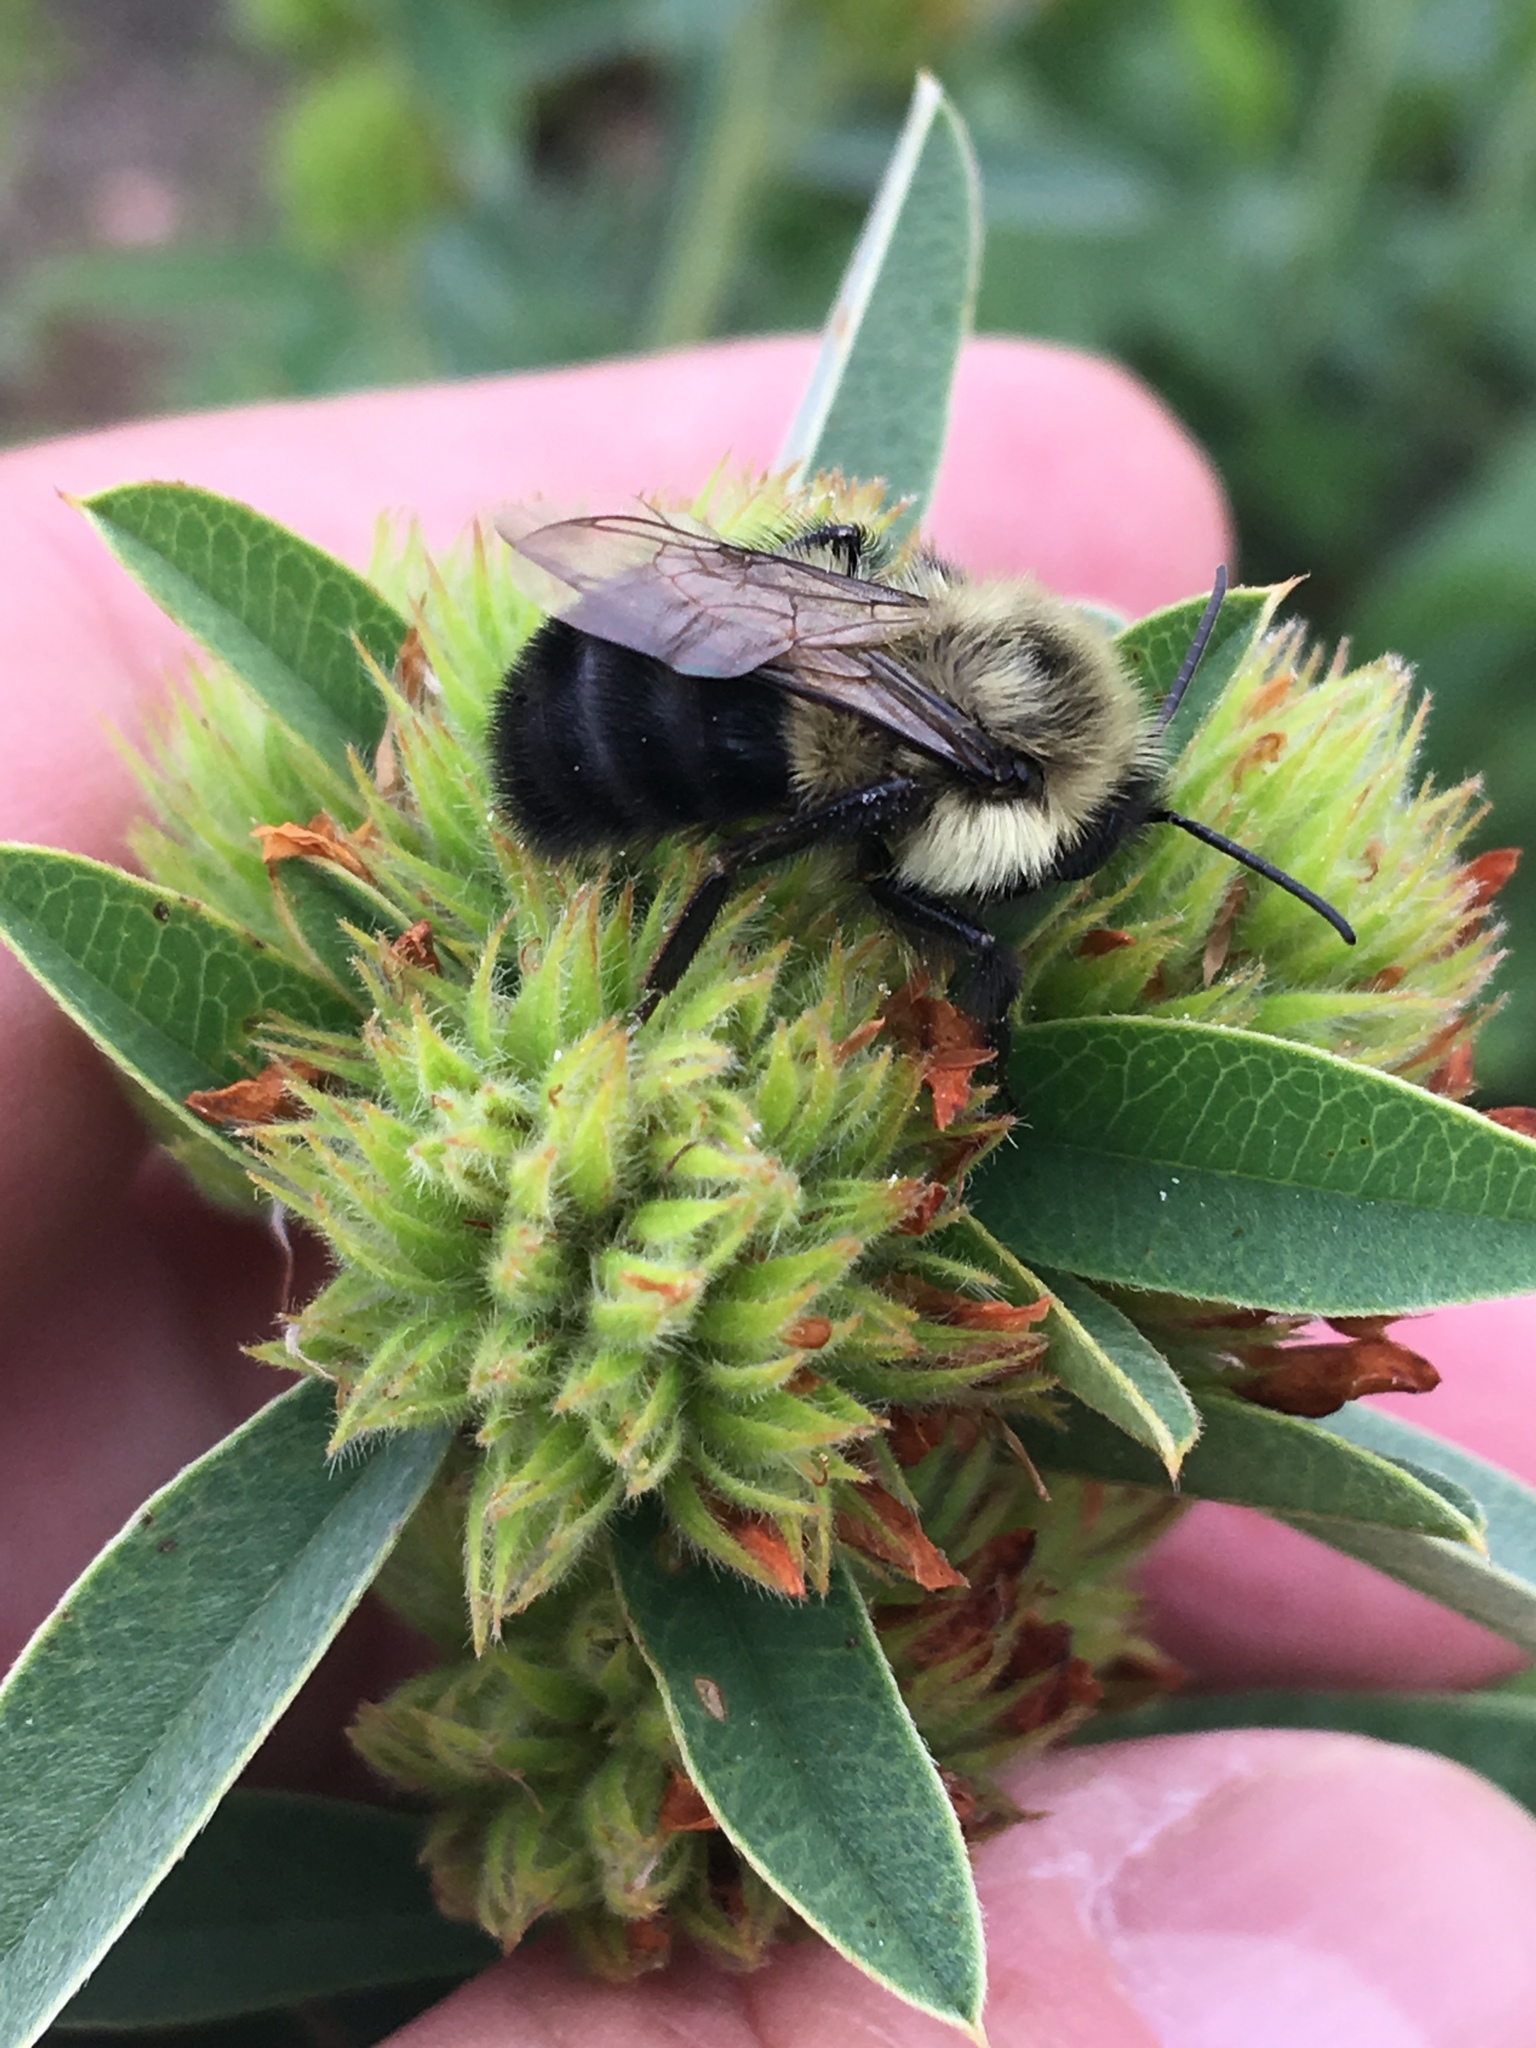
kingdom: Animalia
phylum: Arthropoda
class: Insecta
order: Hymenoptera
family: Apidae
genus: Bombus
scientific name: Bombus impatiens
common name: Common eastern bumble bee
